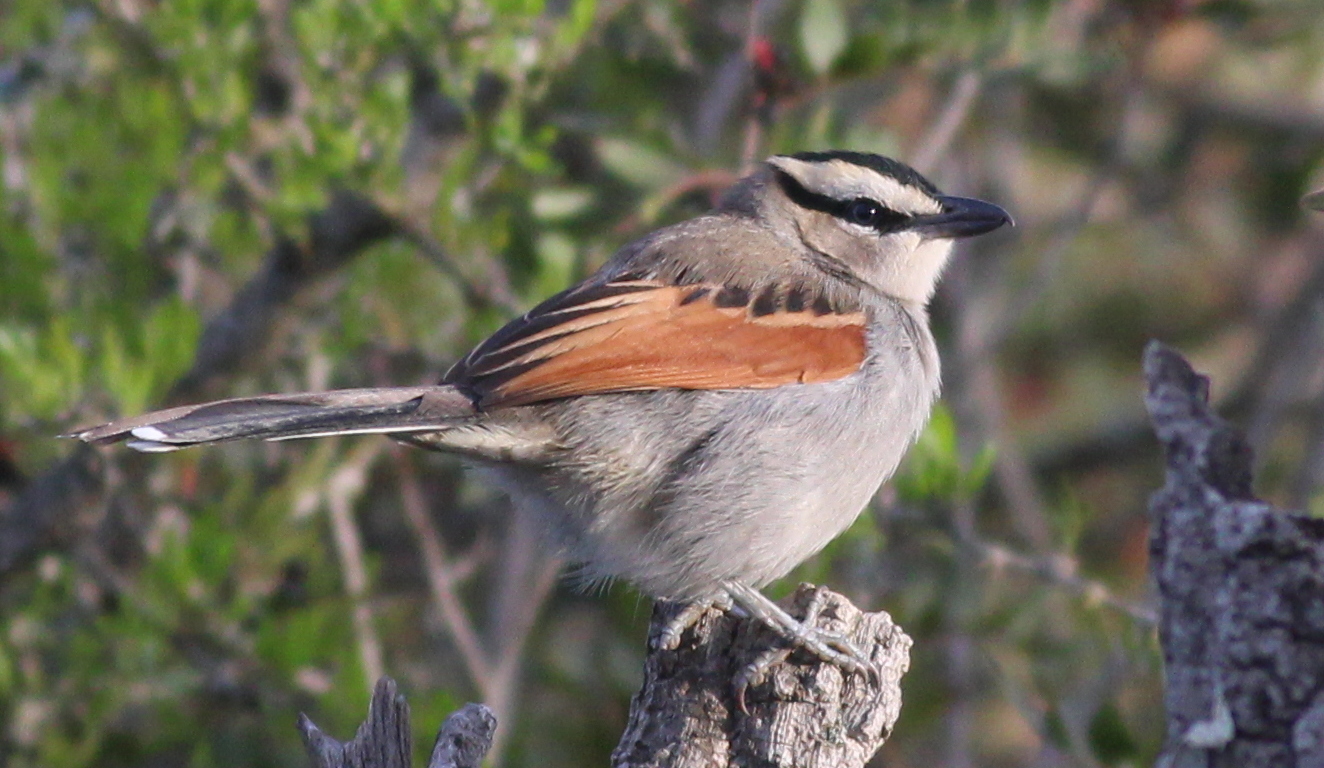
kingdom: Animalia
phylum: Chordata
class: Aves
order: Passeriformes
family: Malaconotidae
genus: Tchagra
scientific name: Tchagra senegalus
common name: Black-crowned tchagra
